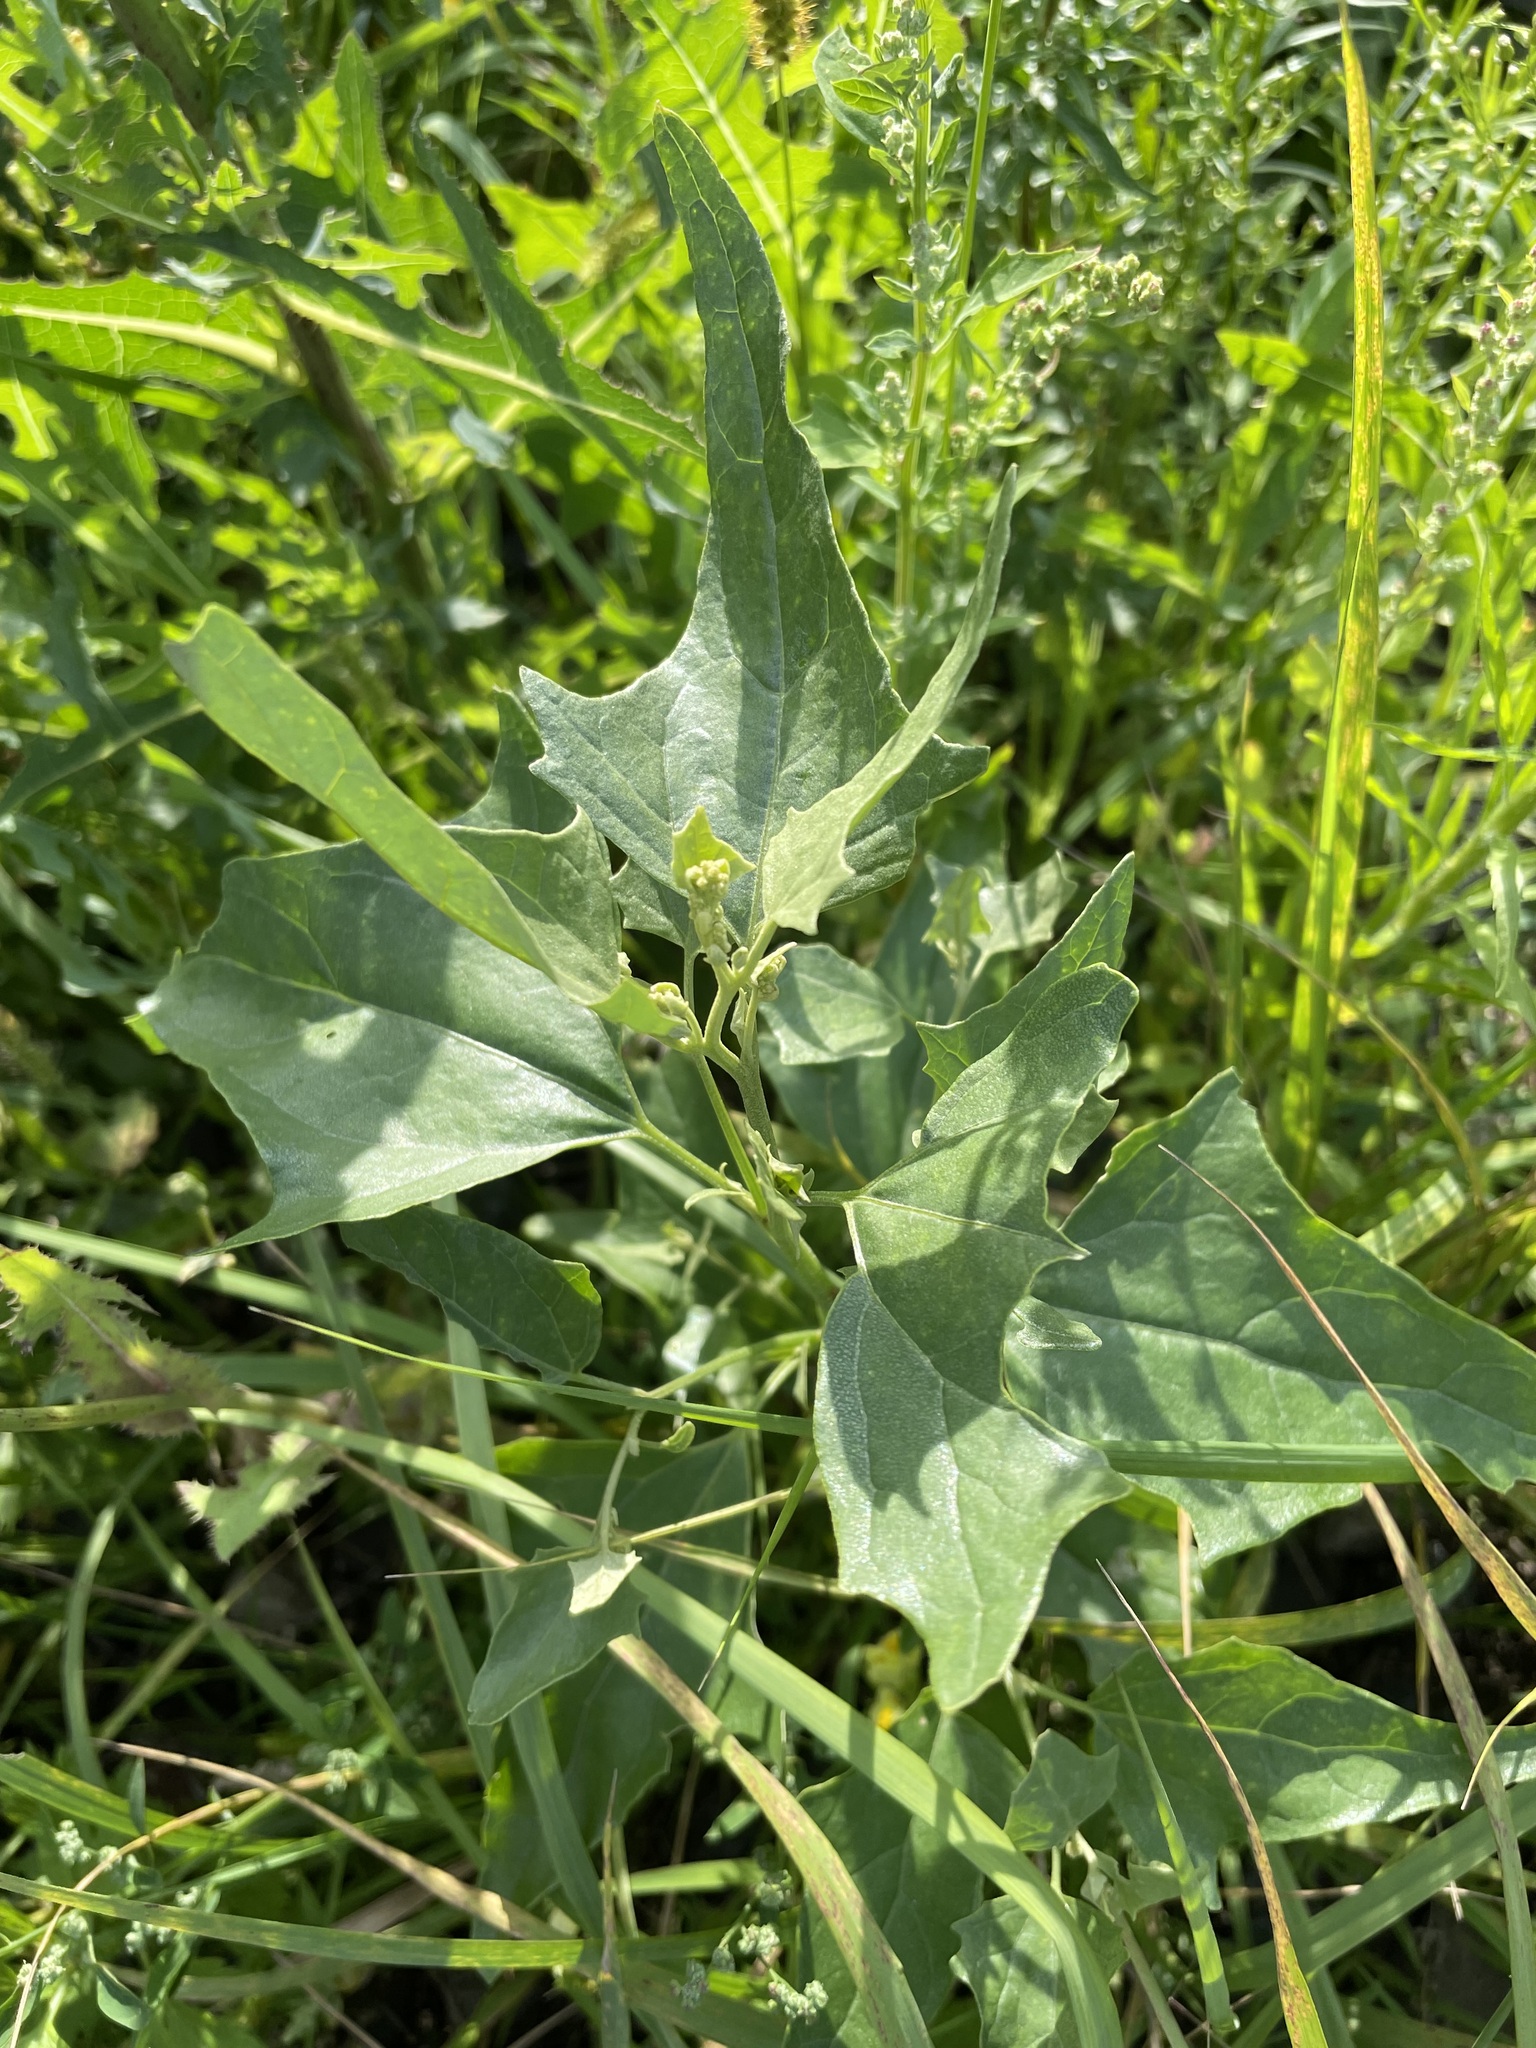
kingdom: Plantae
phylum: Tracheophyta
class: Magnoliopsida
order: Caryophyllales
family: Amaranthaceae
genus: Atriplex
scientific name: Atriplex sagittata
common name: Purple orache
